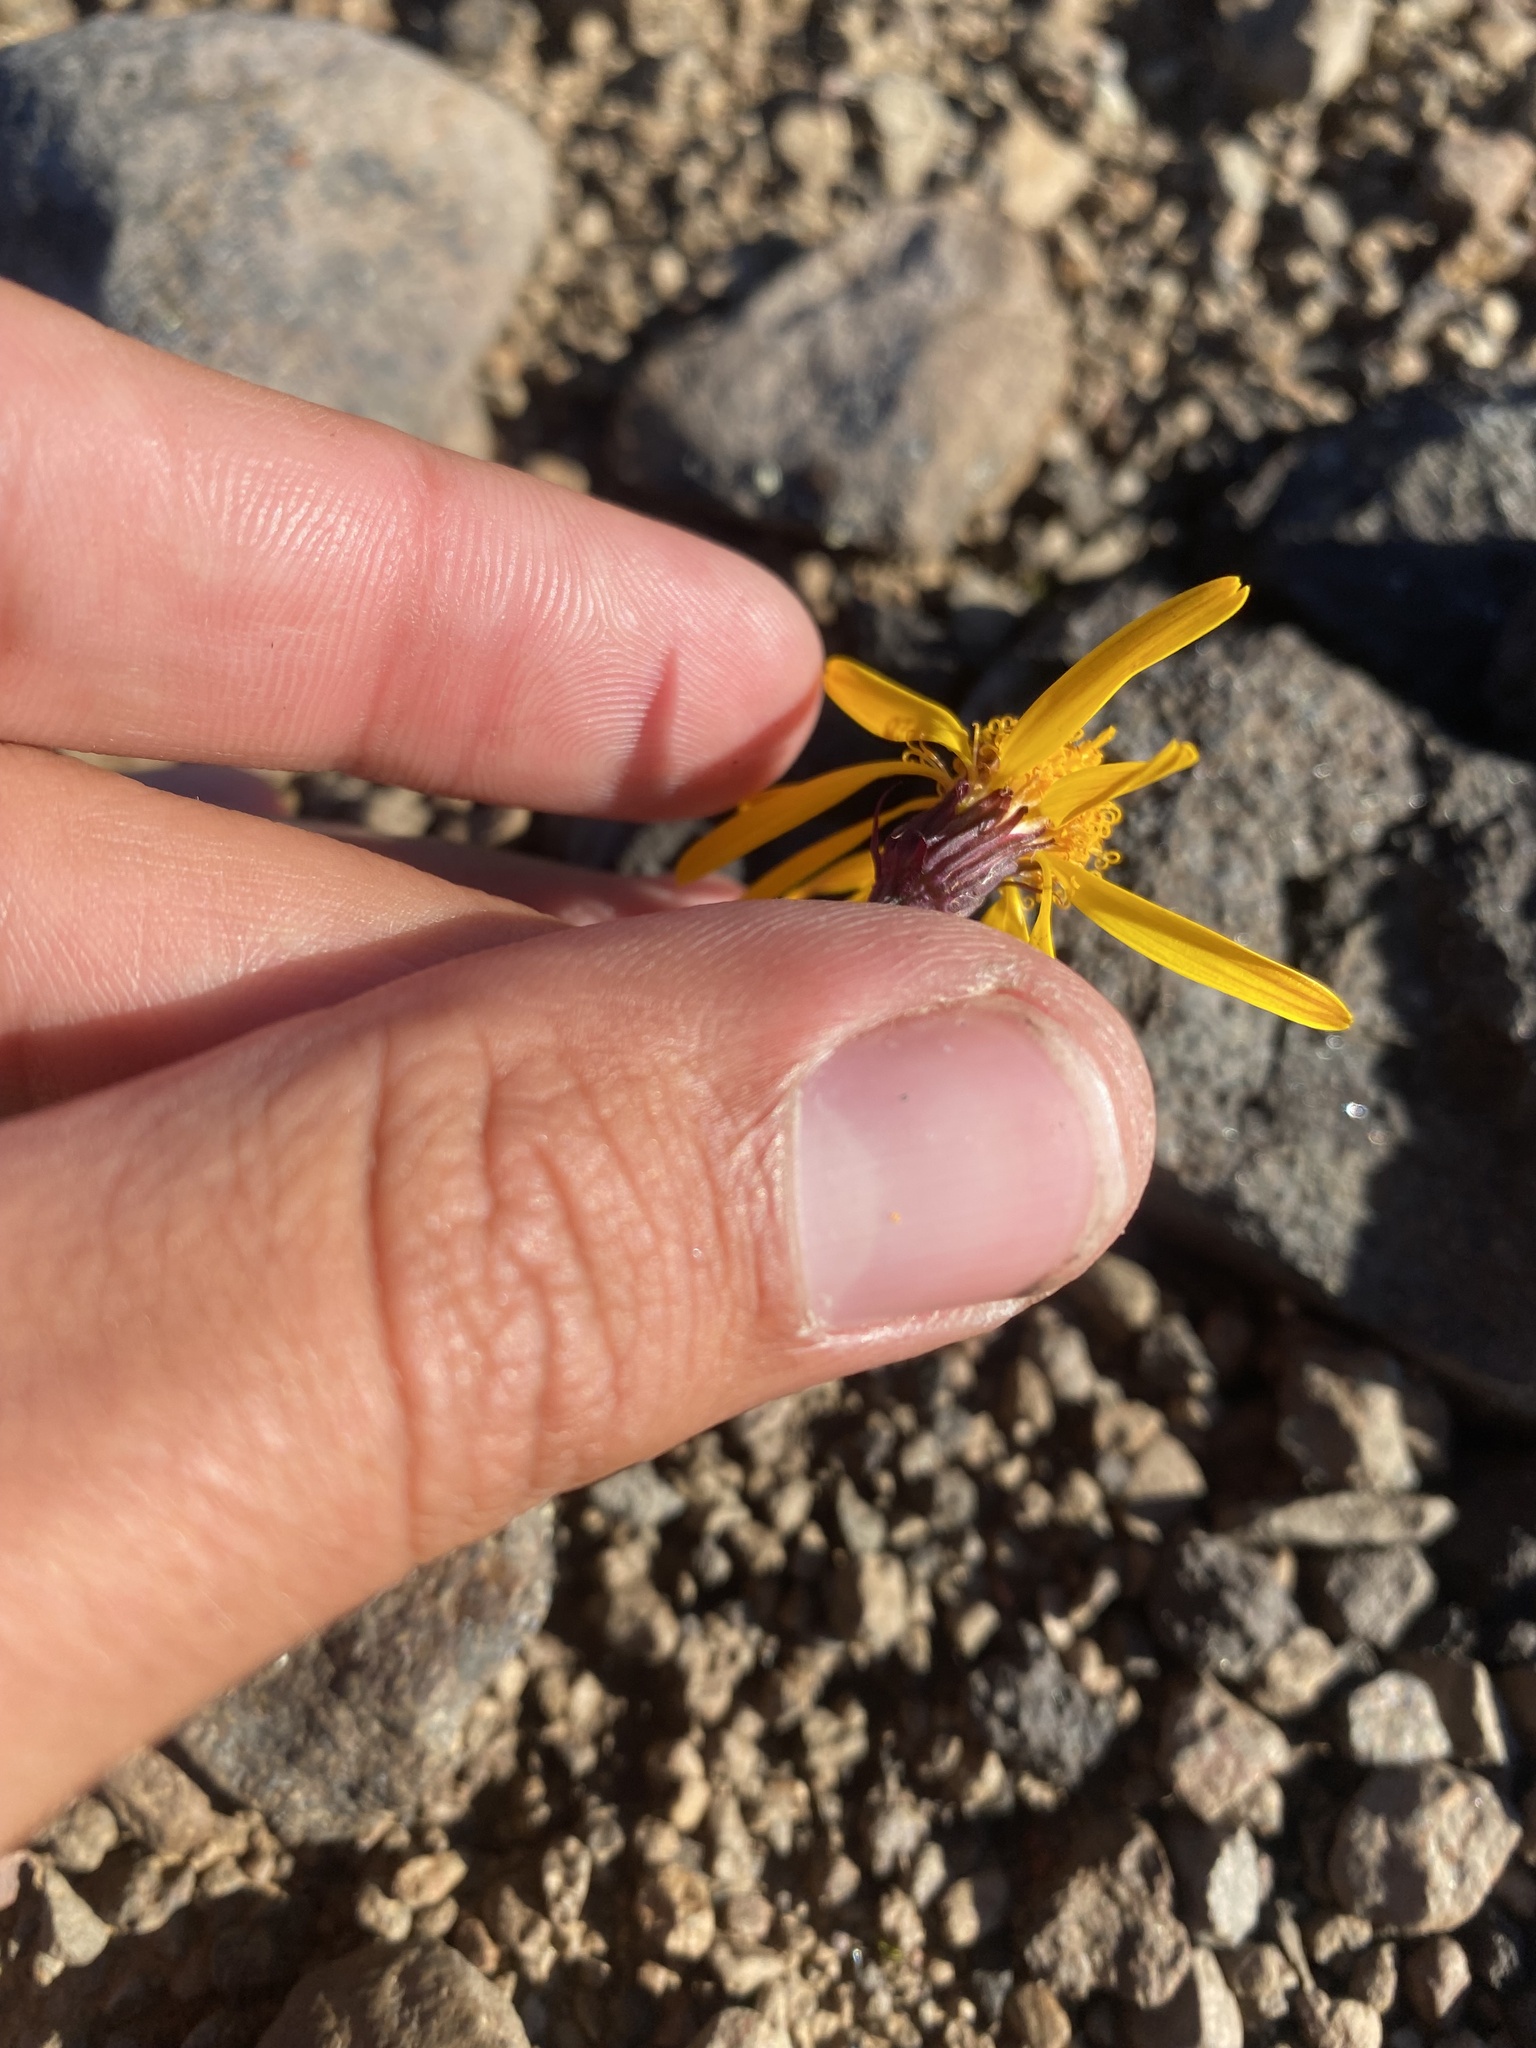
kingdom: Plantae
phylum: Tracheophyta
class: Magnoliopsida
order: Asterales
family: Asteraceae
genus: Packera
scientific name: Packera heterophylla
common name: Arctic butterweed
